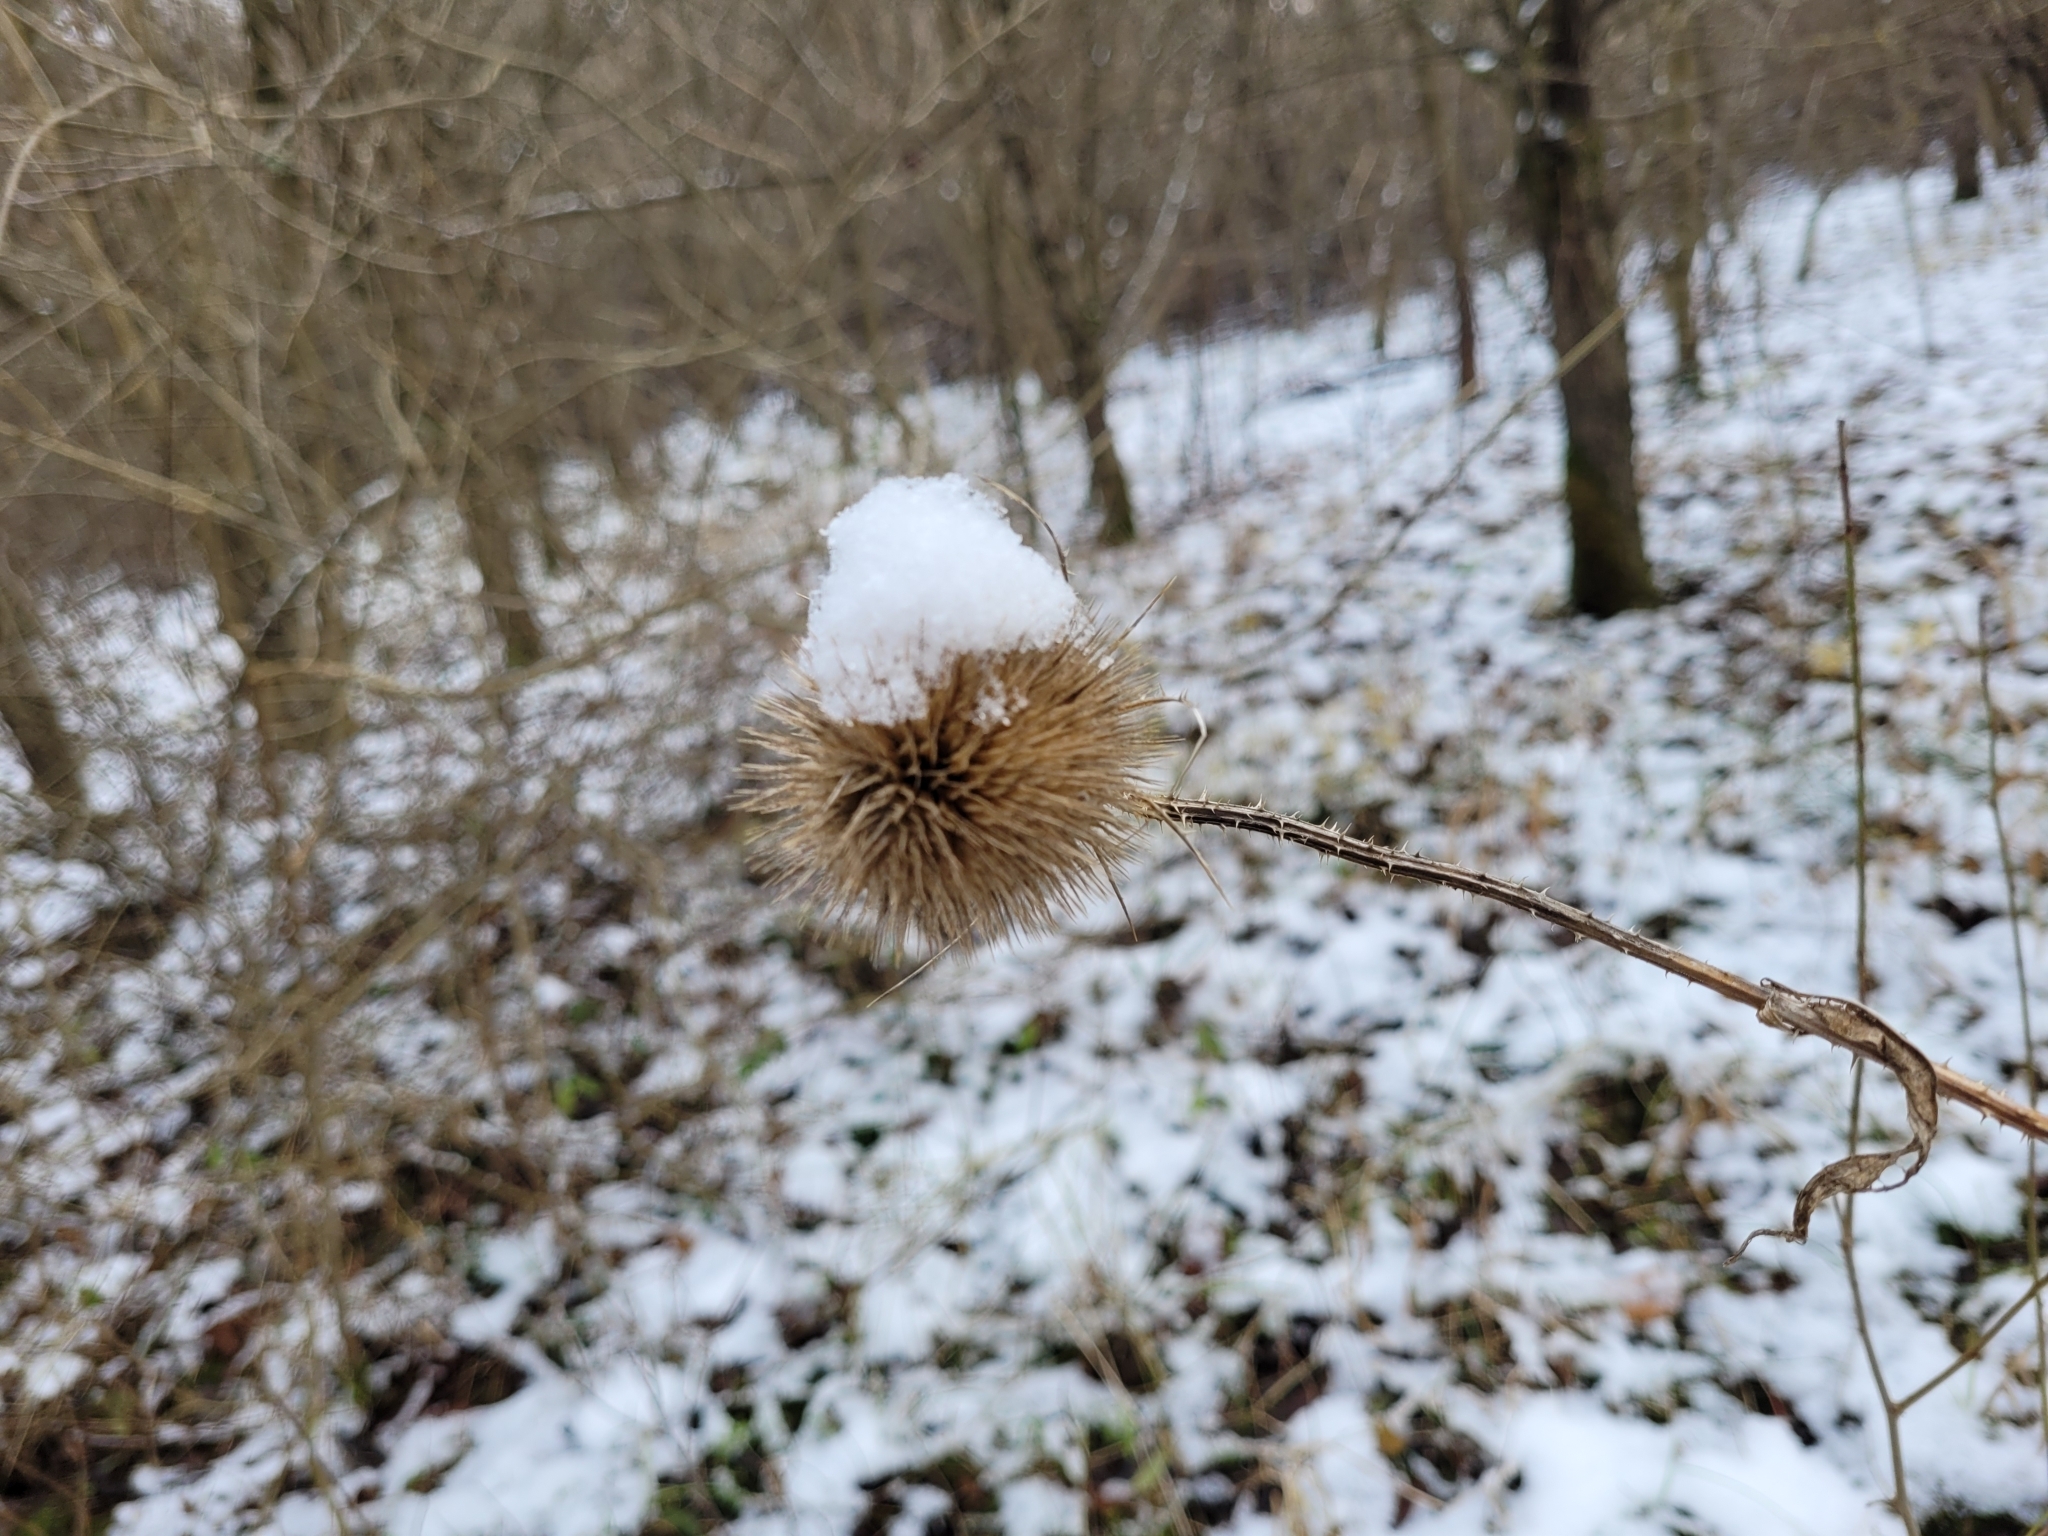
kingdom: Plantae
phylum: Tracheophyta
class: Magnoliopsida
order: Dipsacales
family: Caprifoliaceae
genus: Dipsacus
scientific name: Dipsacus fullonum
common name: Teasel
